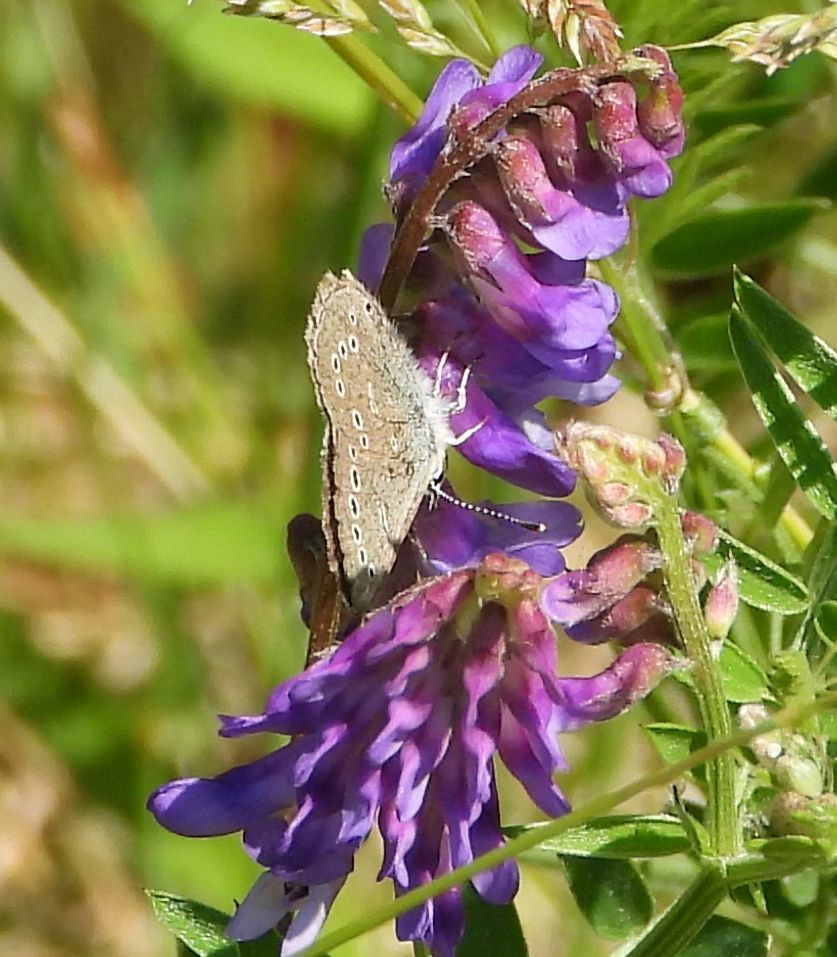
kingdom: Animalia
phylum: Arthropoda
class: Insecta
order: Lepidoptera
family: Lycaenidae
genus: Glaucopsyche
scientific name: Glaucopsyche lygdamus
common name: Silvery blue
